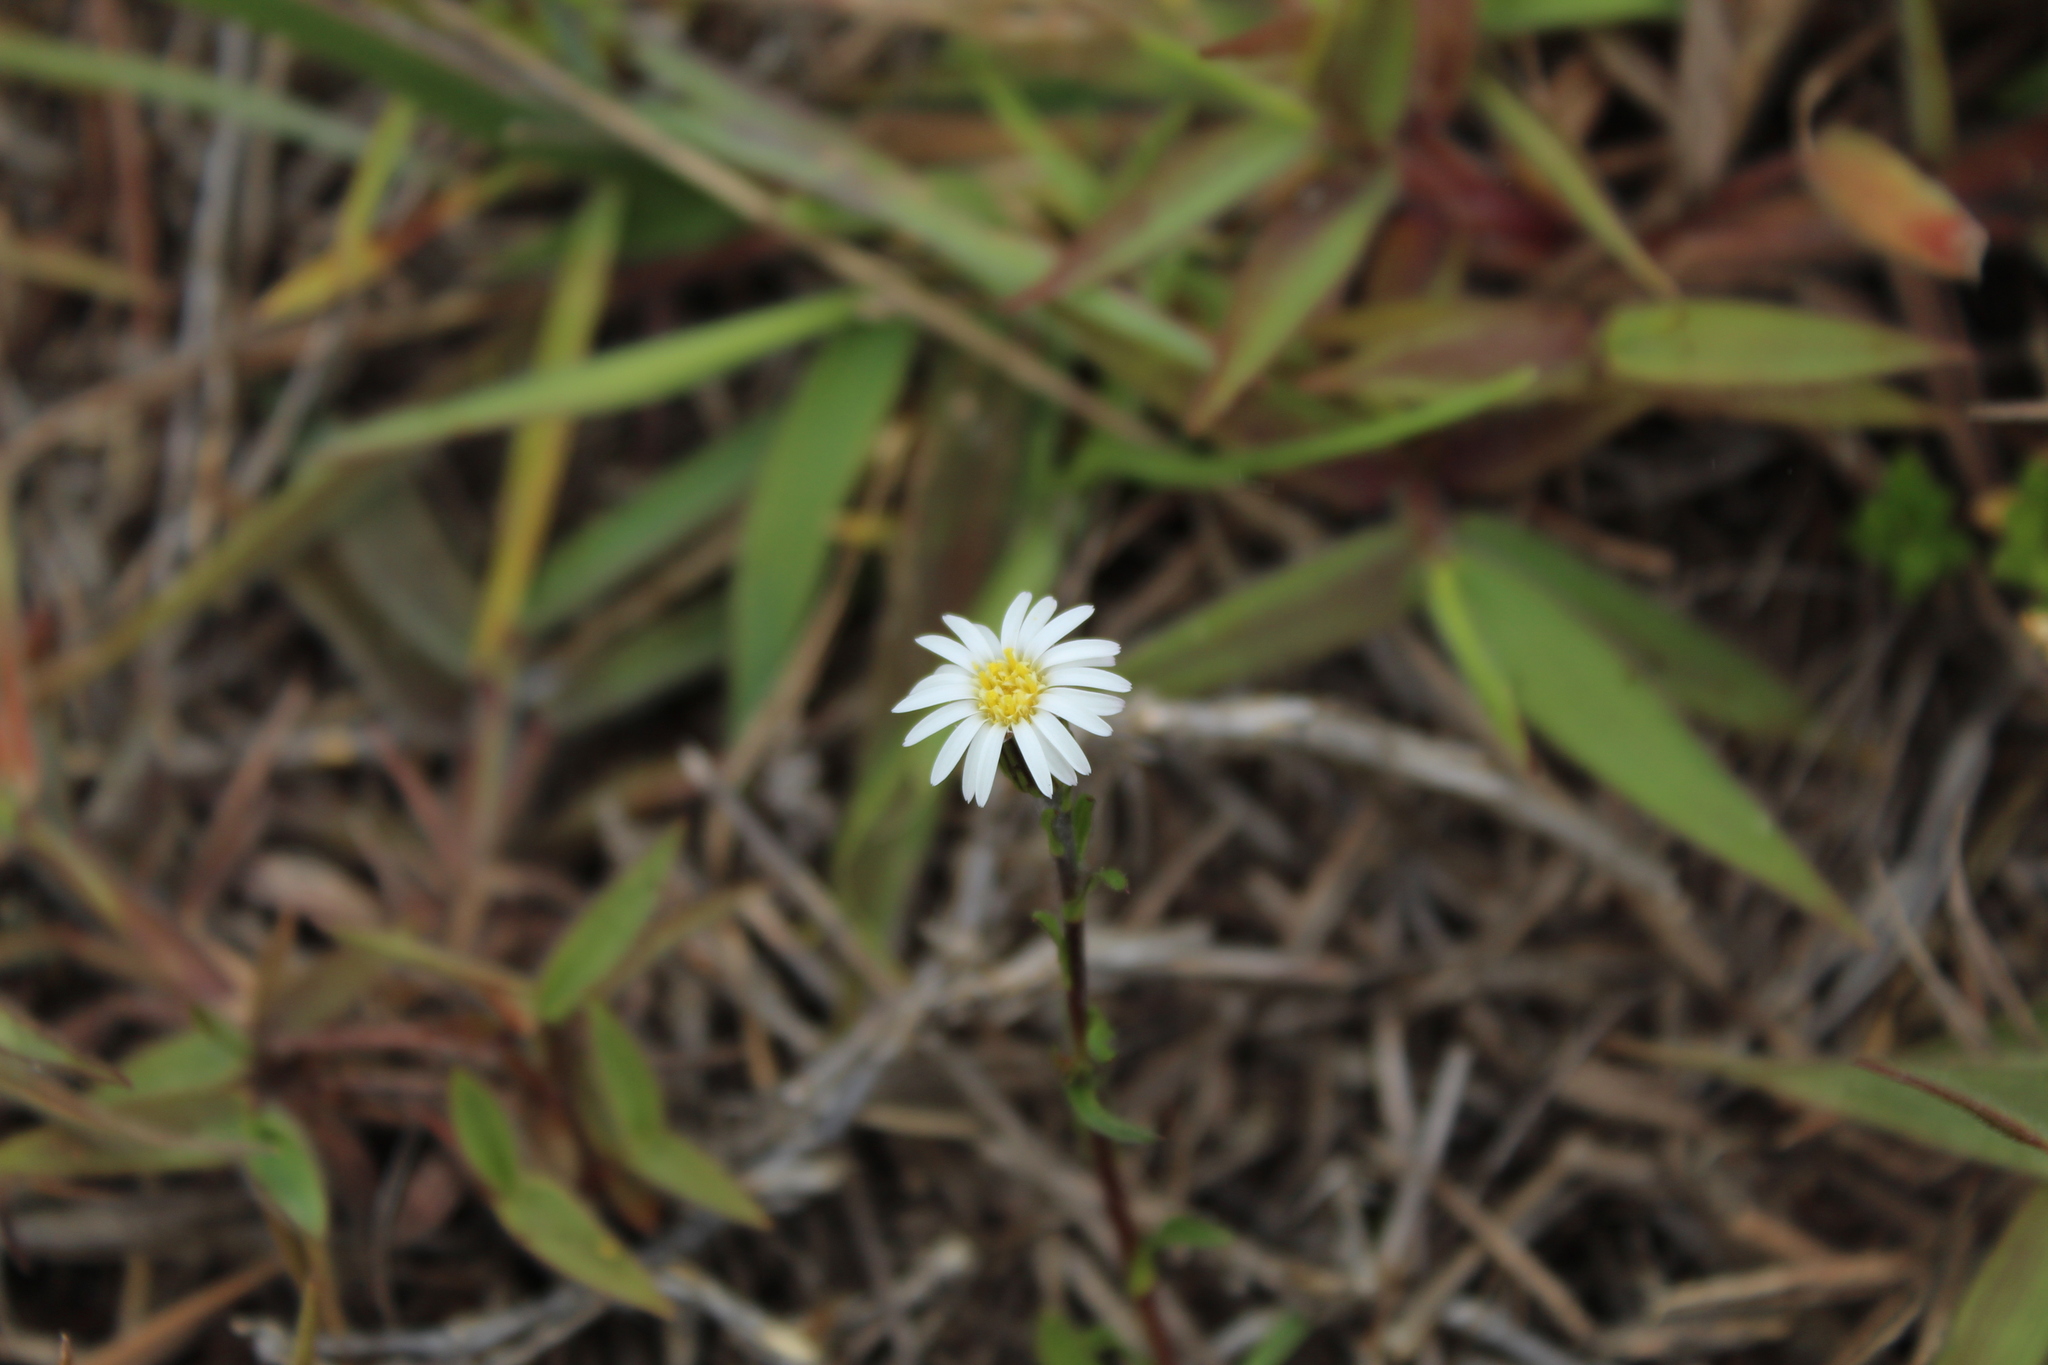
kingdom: Plantae
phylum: Tracheophyta
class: Magnoliopsida
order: Asterales
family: Asteraceae
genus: Noticastrum
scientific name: Noticastrum marginatum
